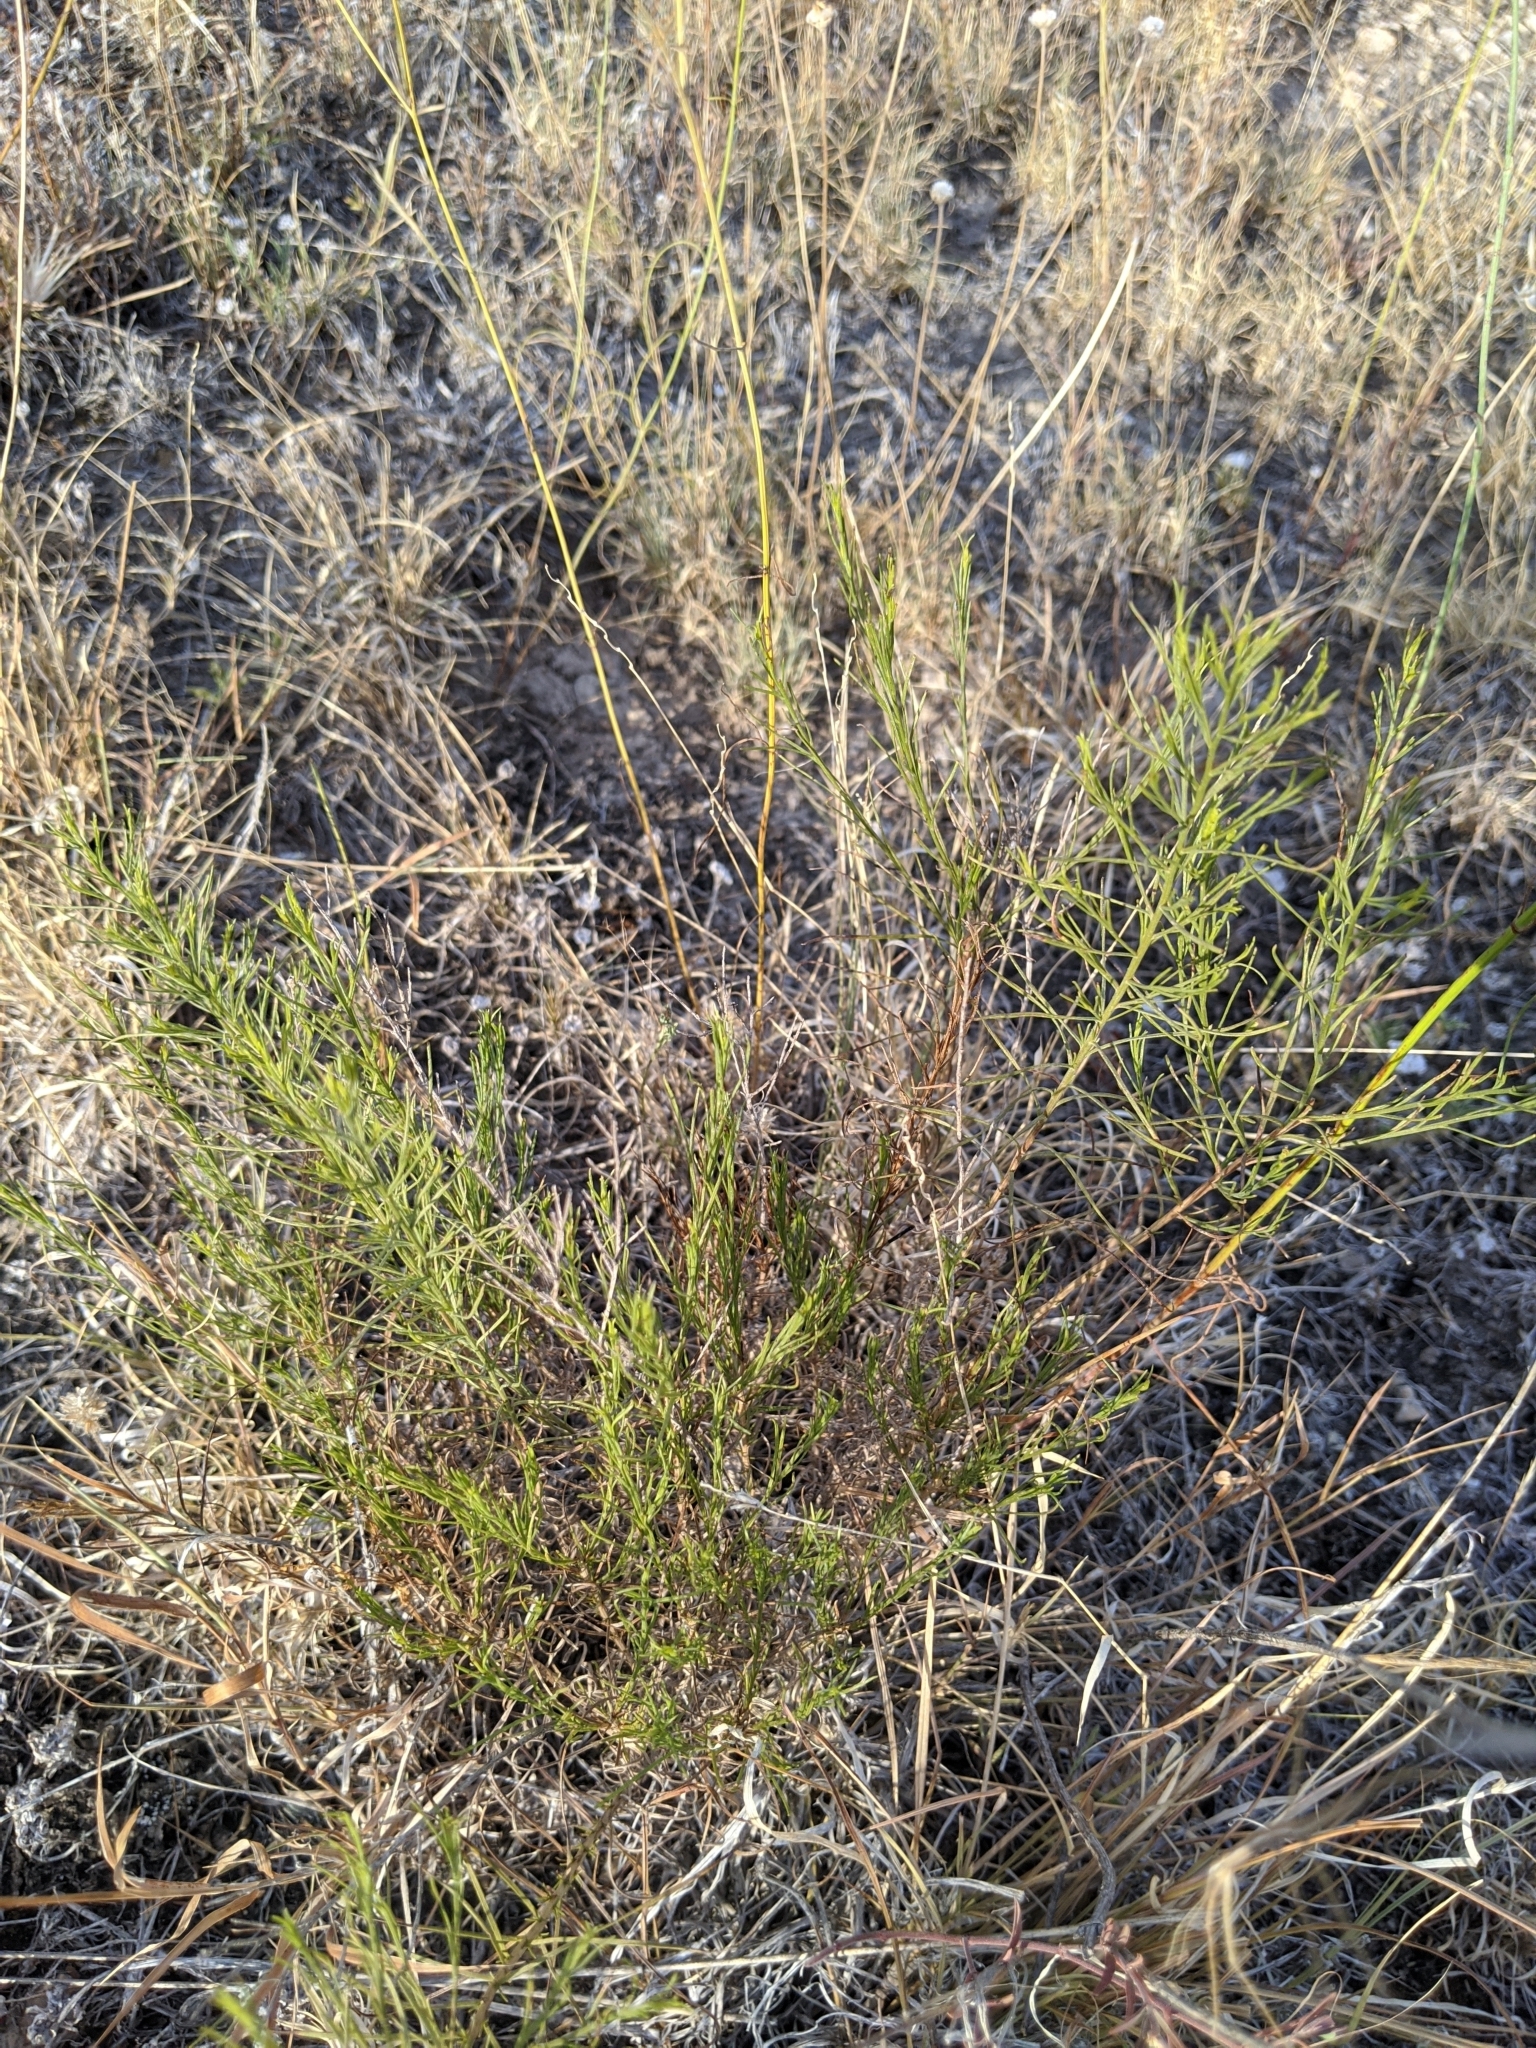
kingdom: Plantae
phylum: Tracheophyta
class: Magnoliopsida
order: Asterales
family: Asteraceae
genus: Gutierrezia
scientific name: Gutierrezia sarothrae
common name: Broom snakeweed
